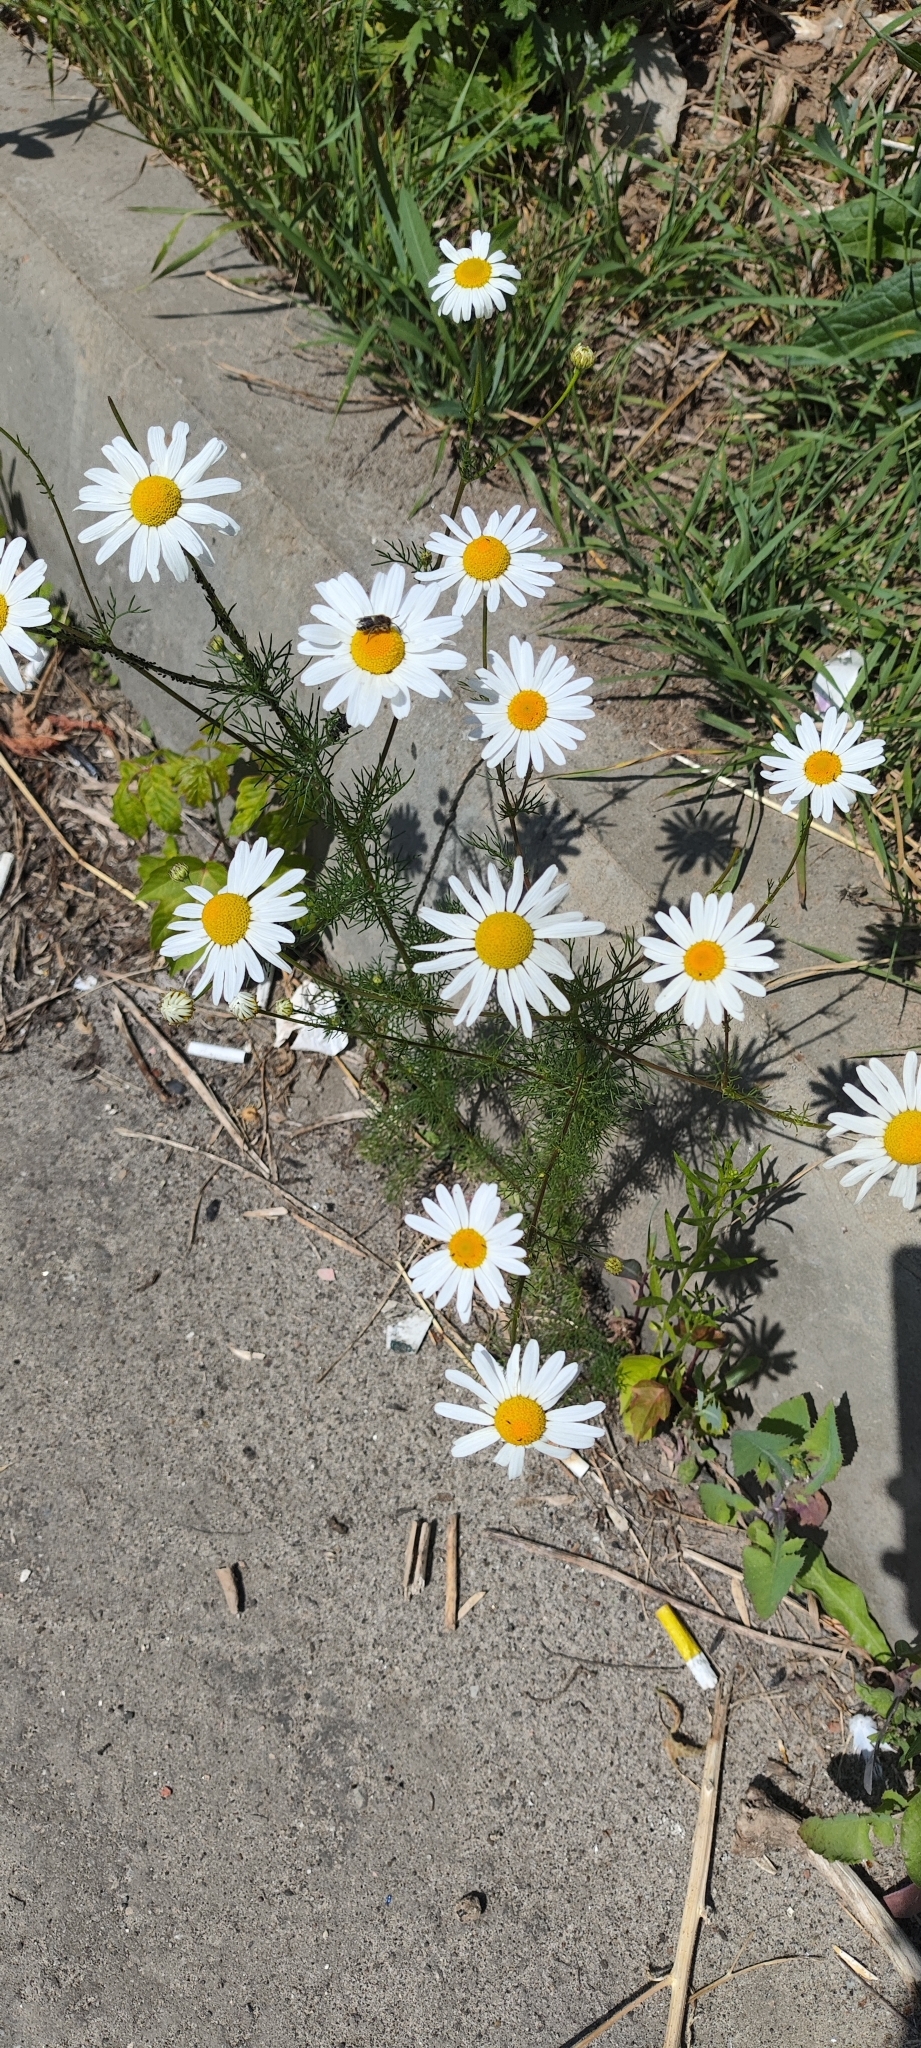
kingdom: Plantae
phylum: Tracheophyta
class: Magnoliopsida
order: Asterales
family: Asteraceae
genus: Tripleurospermum
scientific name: Tripleurospermum inodorum
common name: Scentless mayweed
